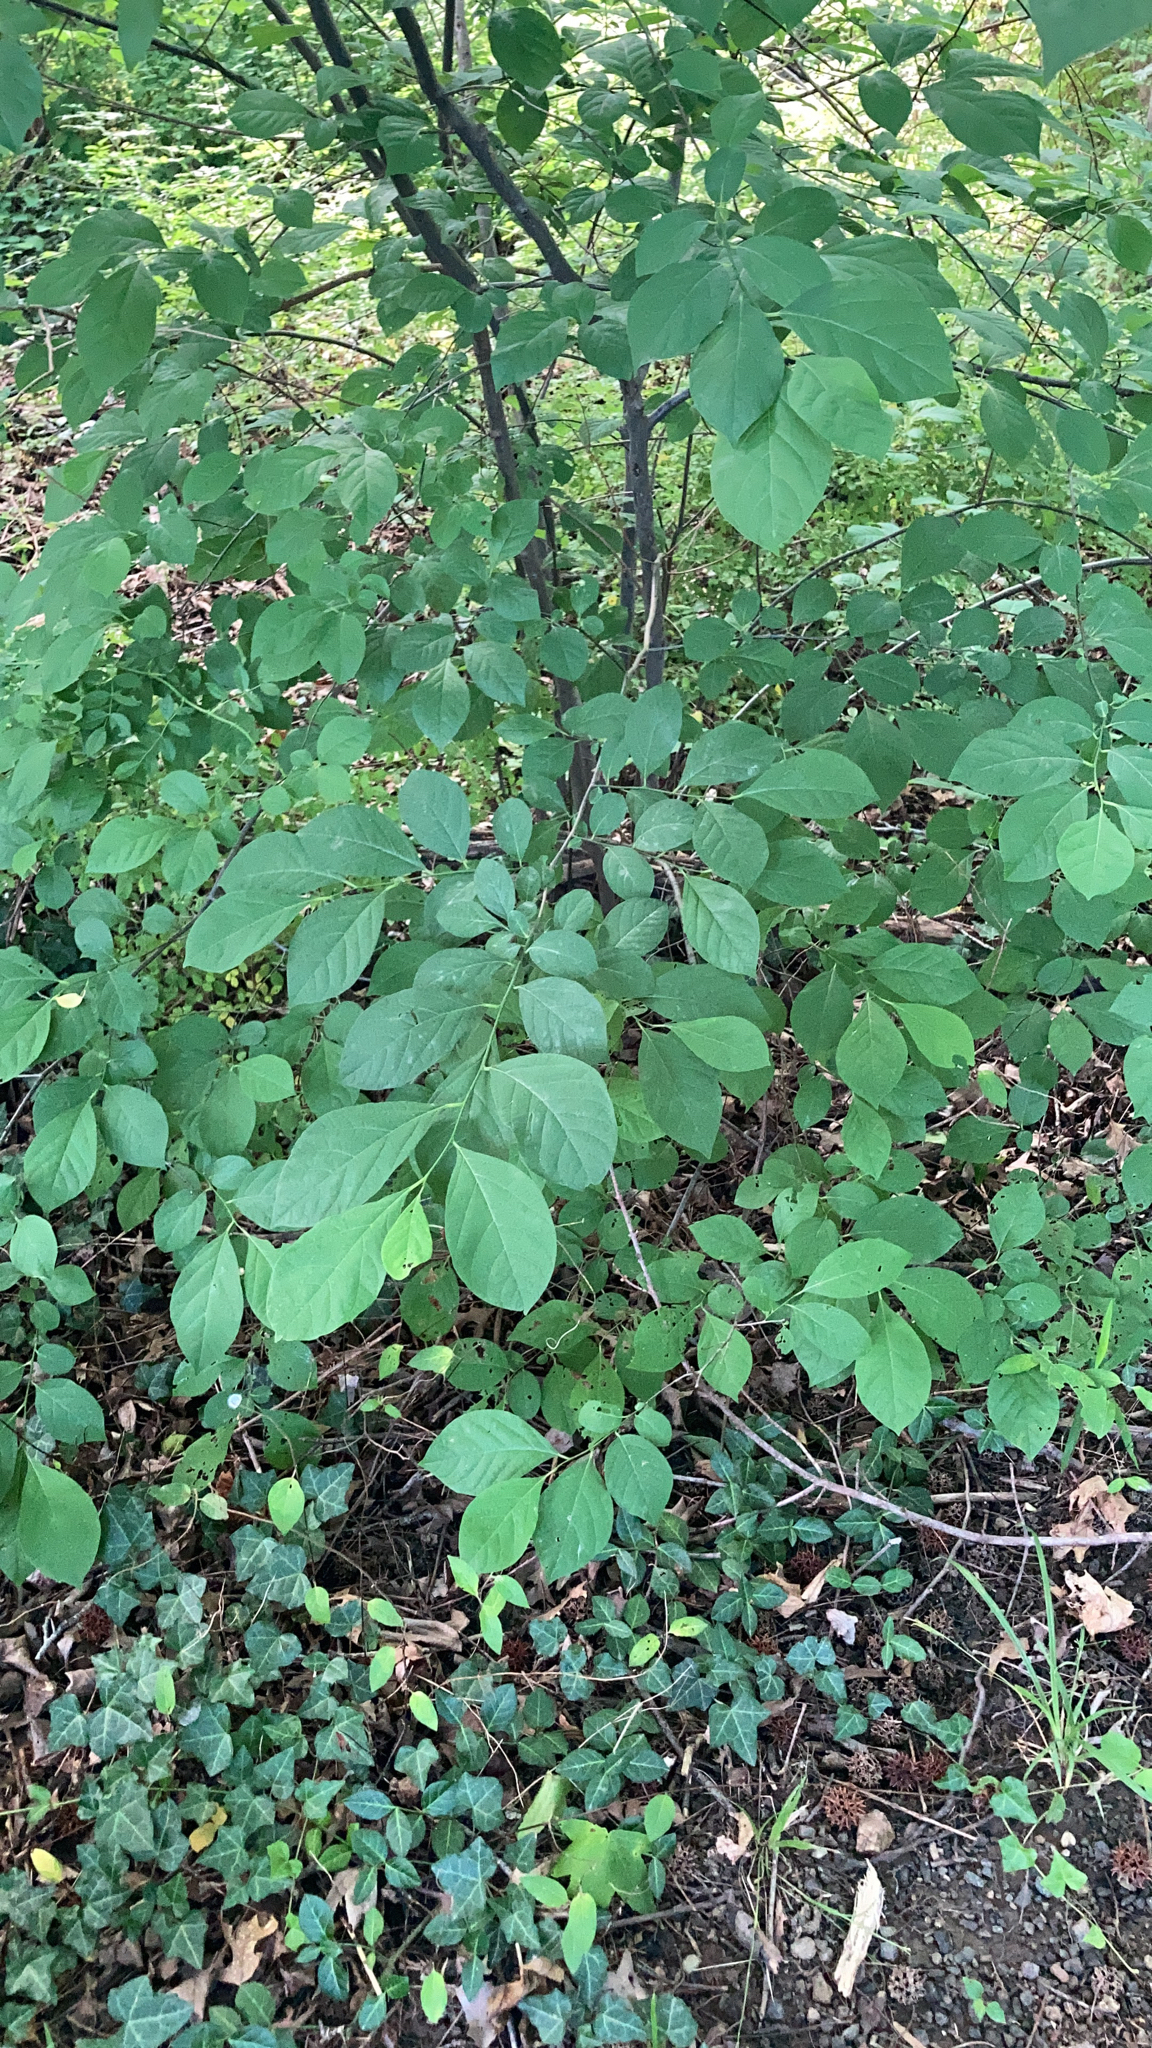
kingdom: Plantae
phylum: Tracheophyta
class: Magnoliopsida
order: Laurales
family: Lauraceae
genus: Lindera
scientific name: Lindera benzoin
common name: Spicebush
